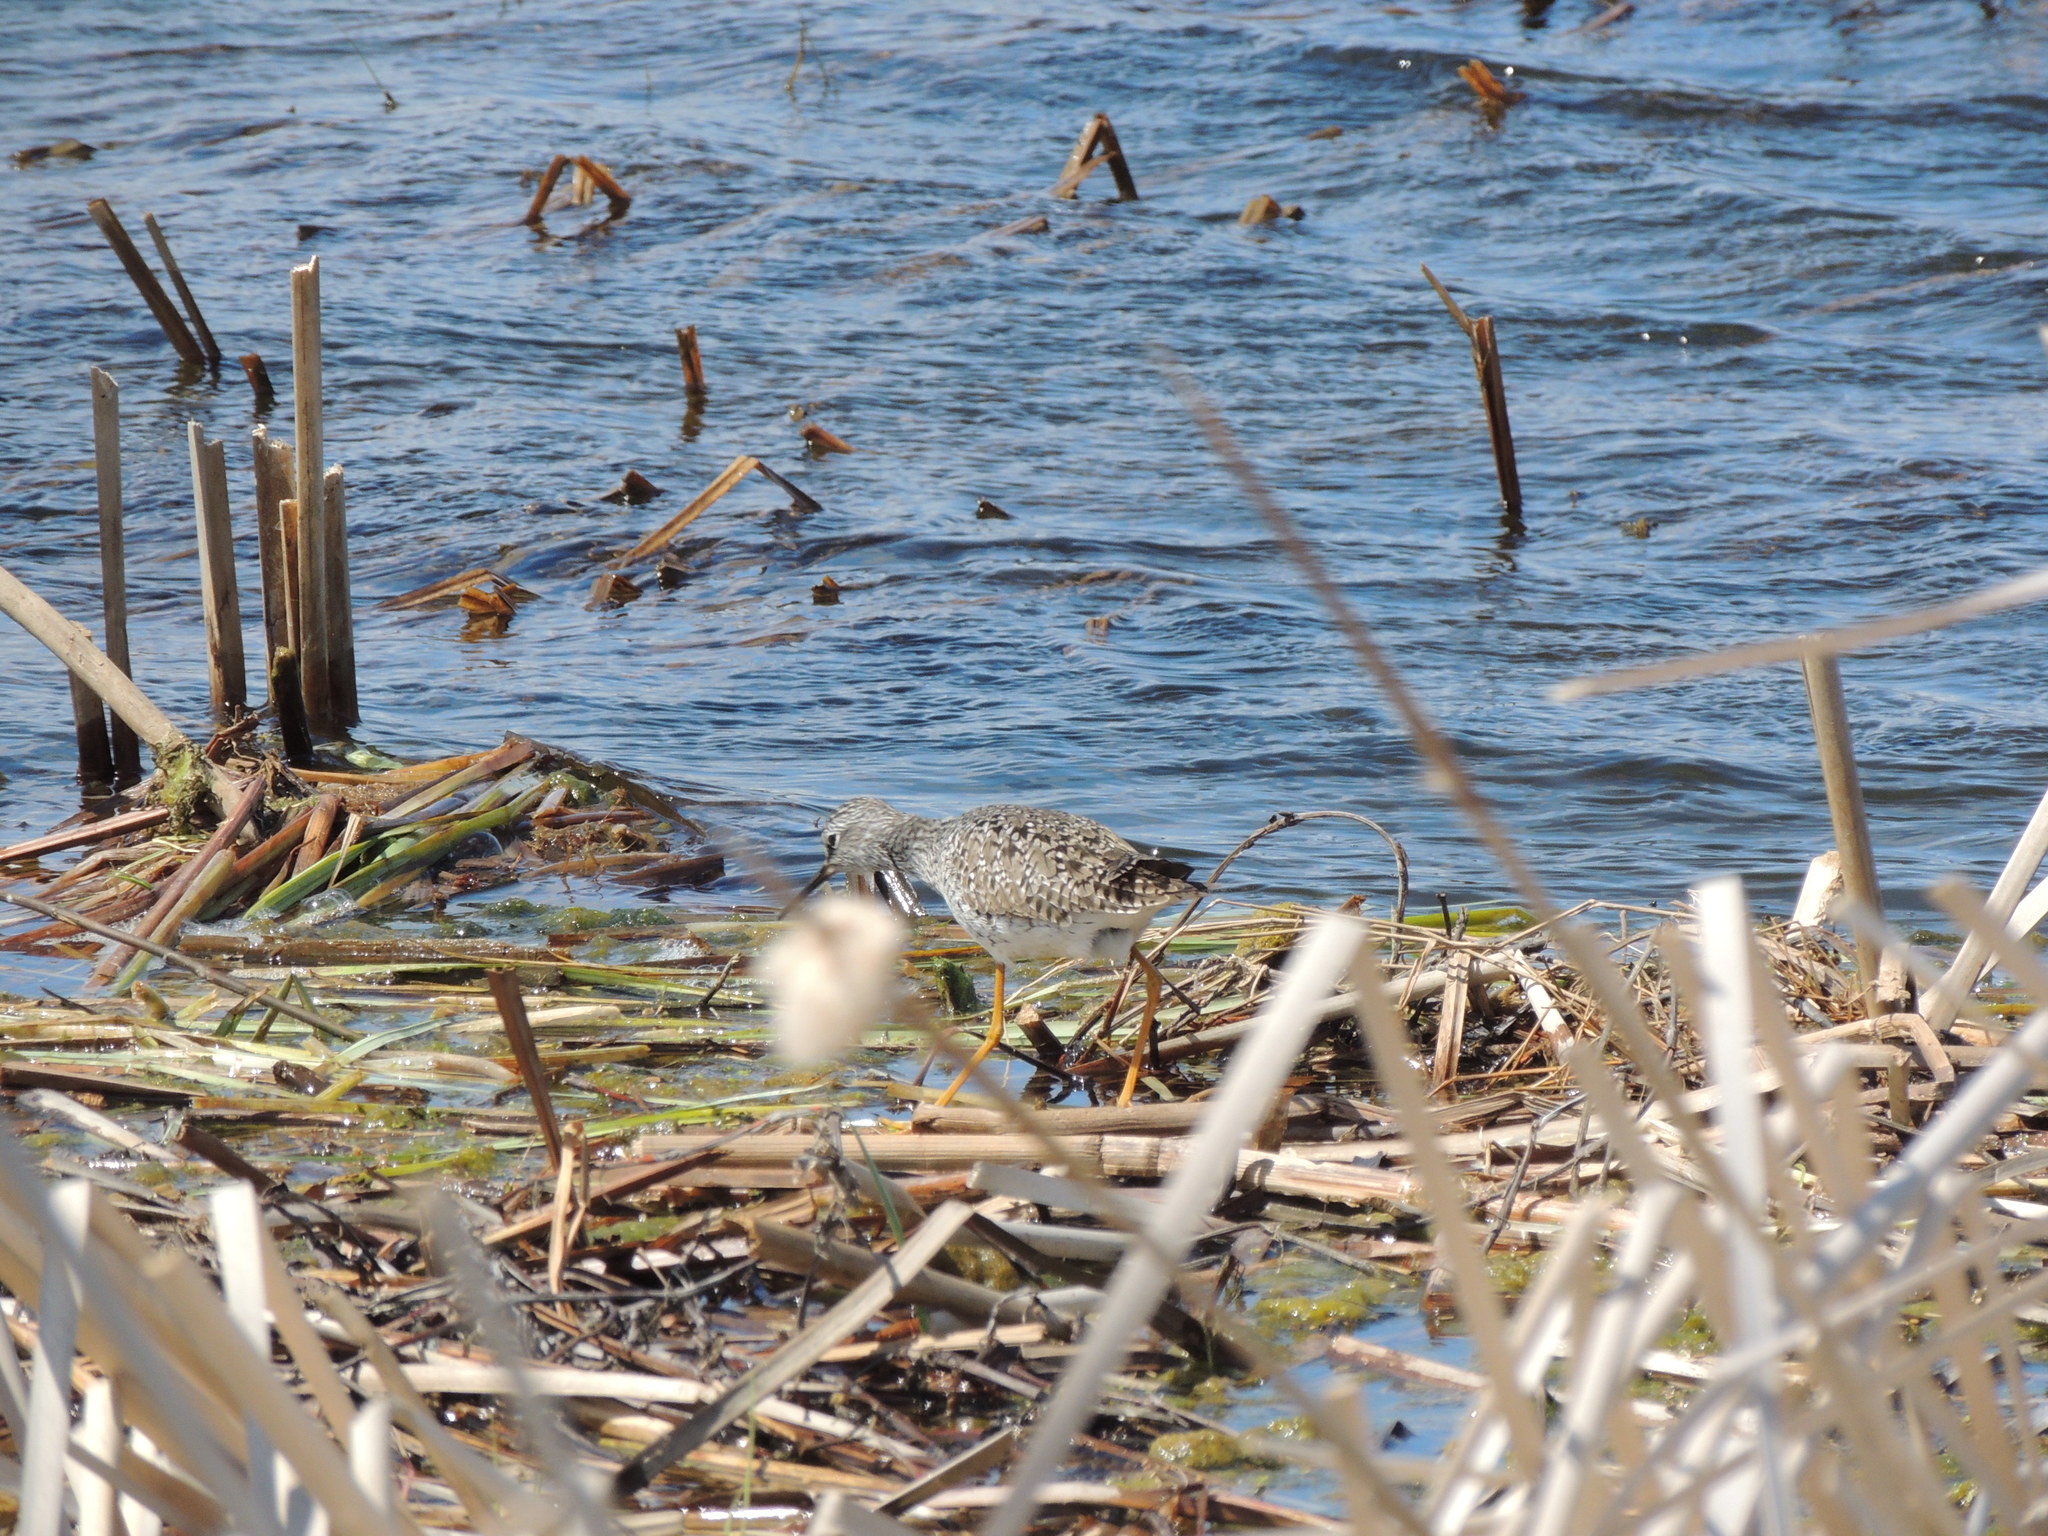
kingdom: Animalia
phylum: Chordata
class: Aves
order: Charadriiformes
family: Scolopacidae
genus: Tringa
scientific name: Tringa flavipes
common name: Lesser yellowlegs
